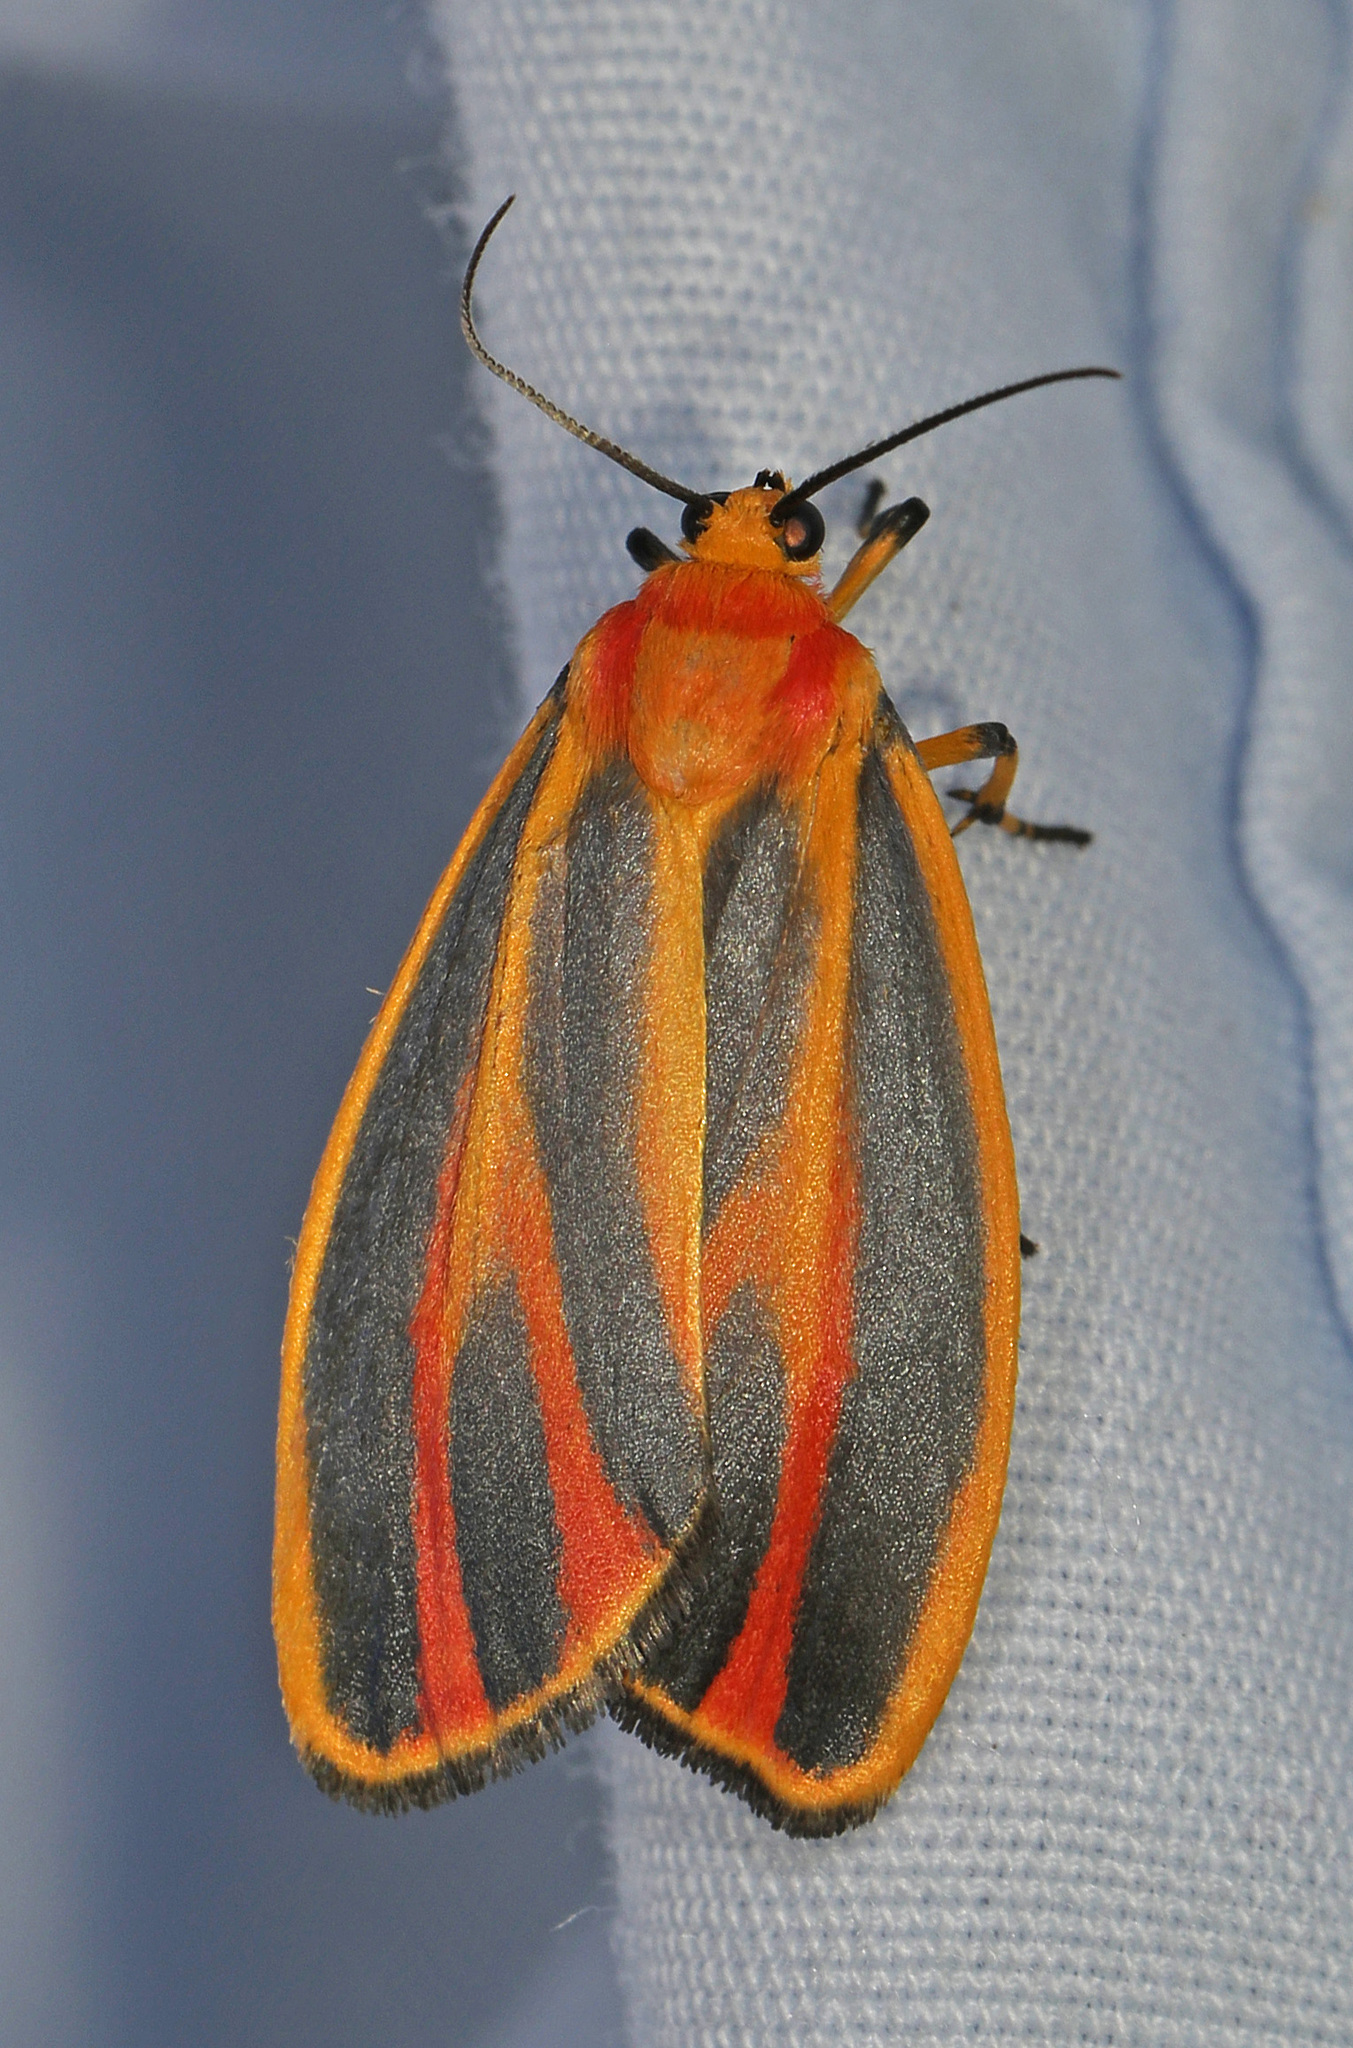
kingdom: Animalia
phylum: Arthropoda
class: Insecta
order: Lepidoptera
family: Erebidae
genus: Hypoprepia
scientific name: Hypoprepia fucosa
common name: Painted lichen moth
